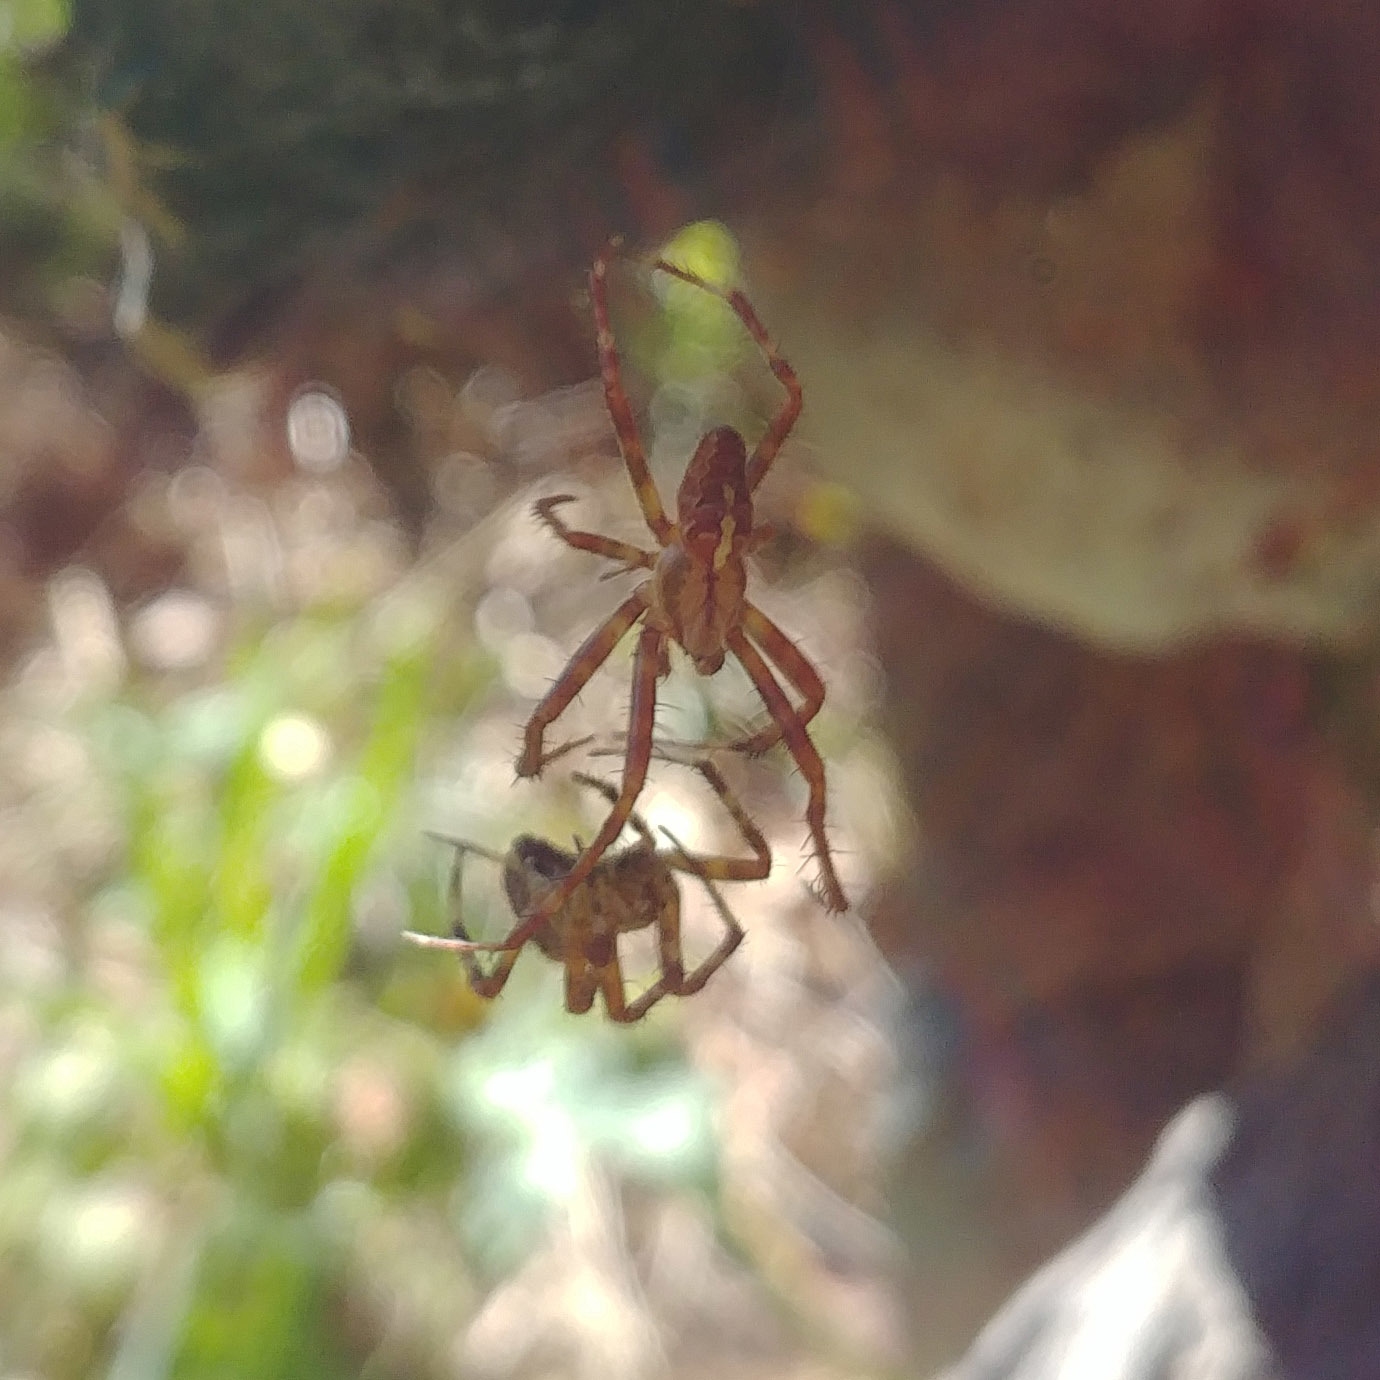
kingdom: Animalia
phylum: Arthropoda
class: Arachnida
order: Araneae
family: Araneidae
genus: Araneus
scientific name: Araneus diadematus
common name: Cross orbweaver
